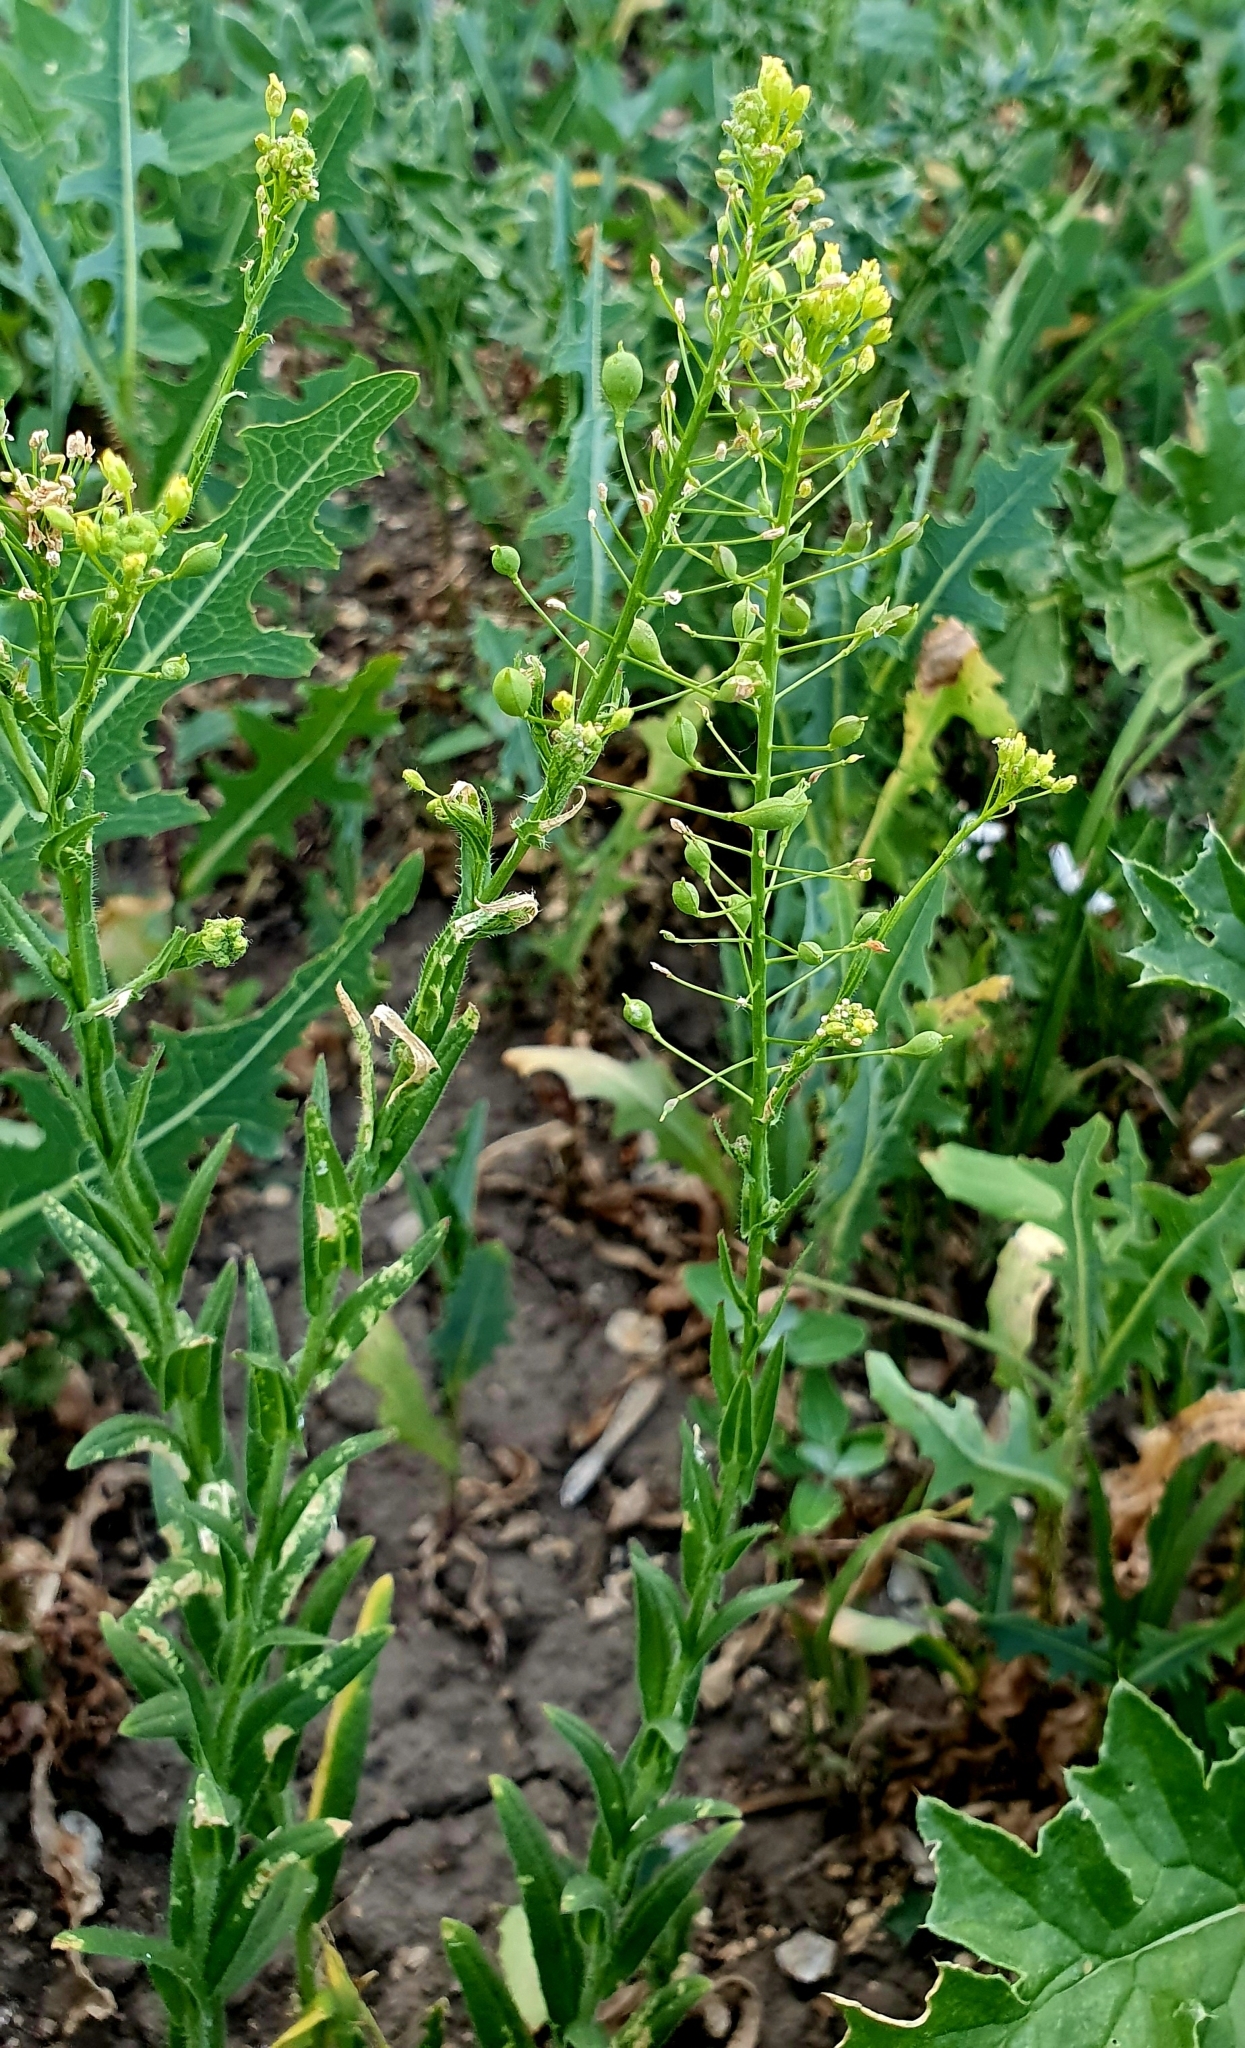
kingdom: Plantae
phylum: Tracheophyta
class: Magnoliopsida
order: Brassicales
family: Brassicaceae
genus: Camelina
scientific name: Camelina microcarpa
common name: Lesser gold-of-pleasure
